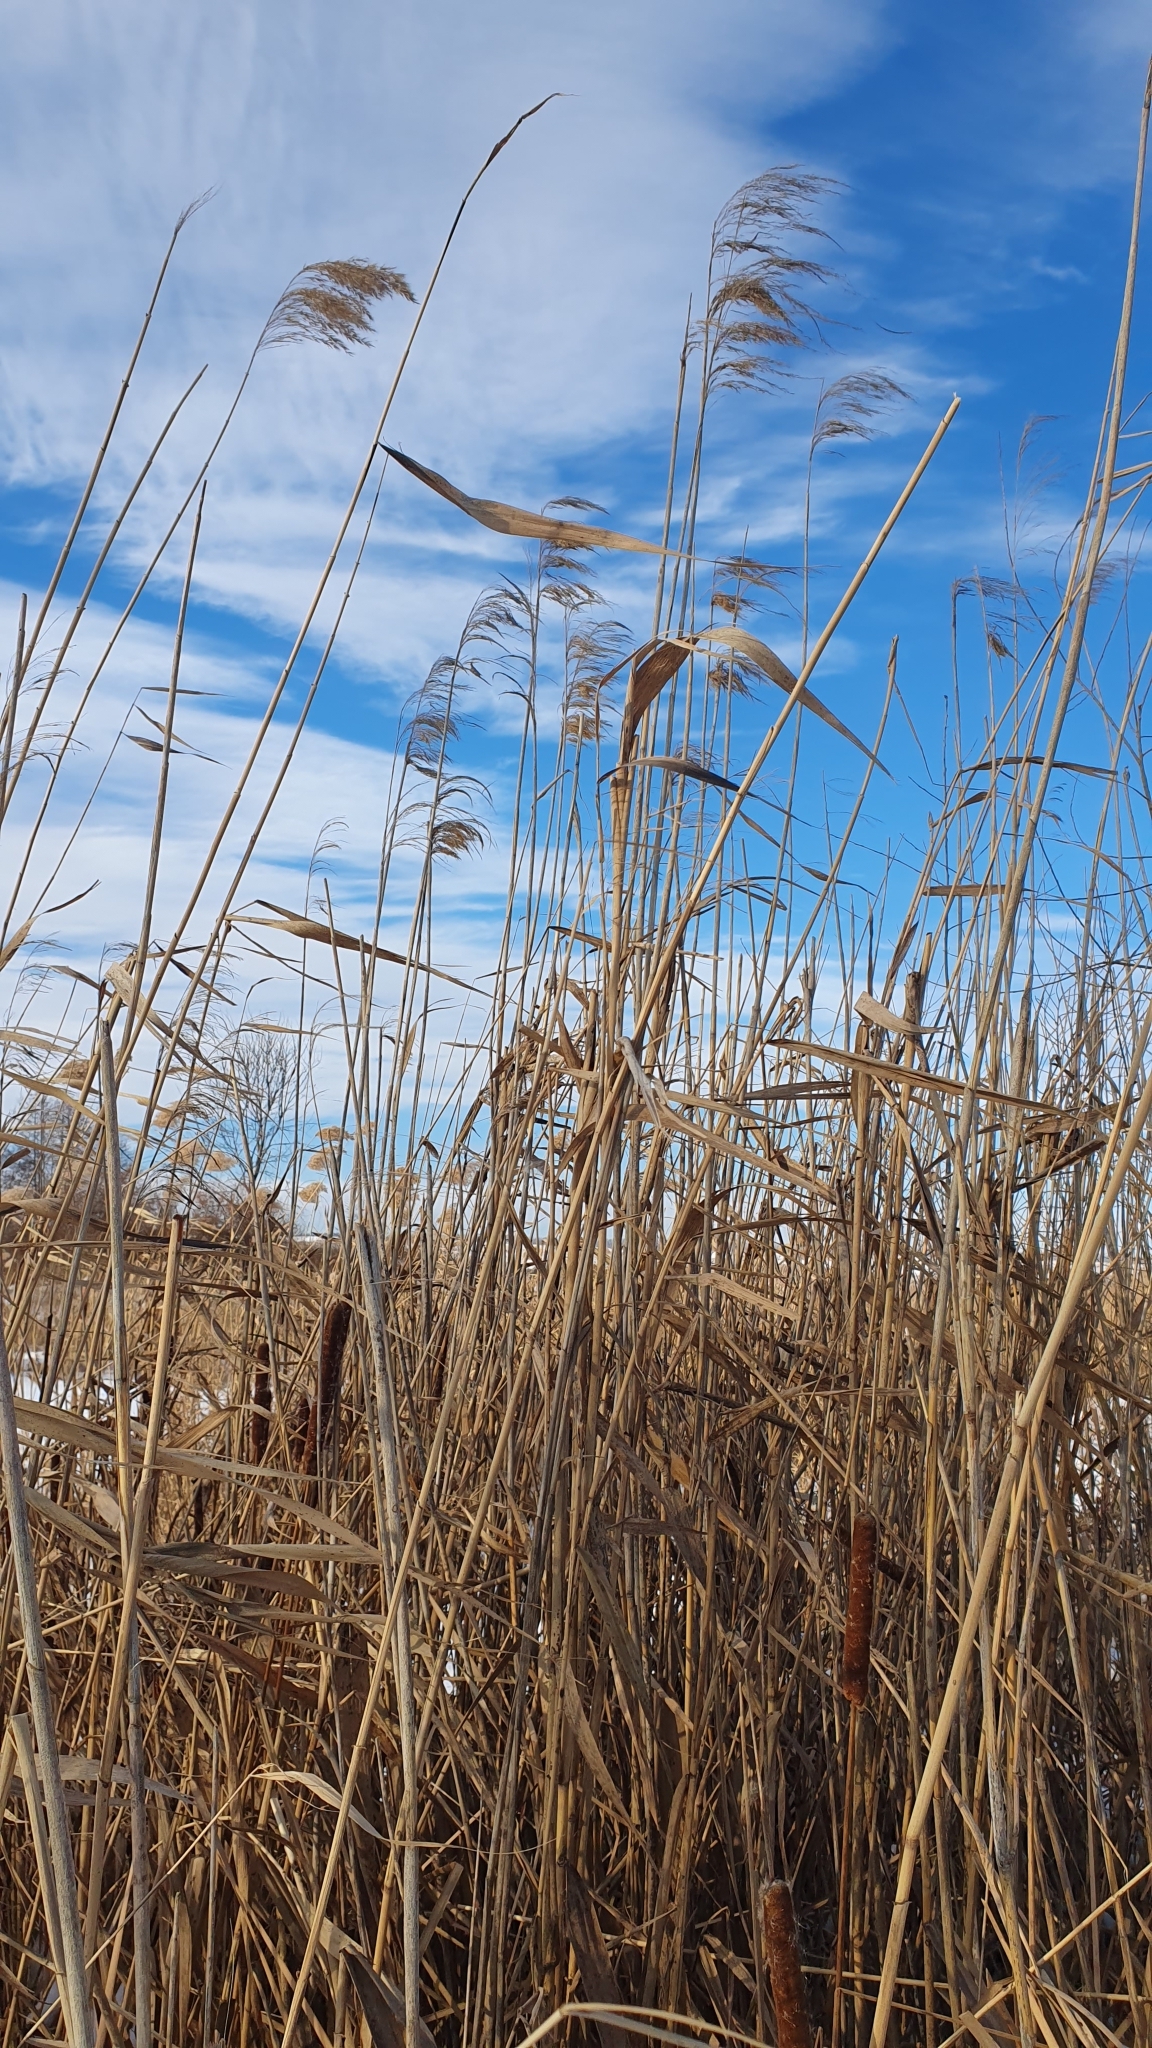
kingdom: Plantae
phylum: Tracheophyta
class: Liliopsida
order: Poales
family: Poaceae
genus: Phragmites
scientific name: Phragmites australis
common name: Common reed
